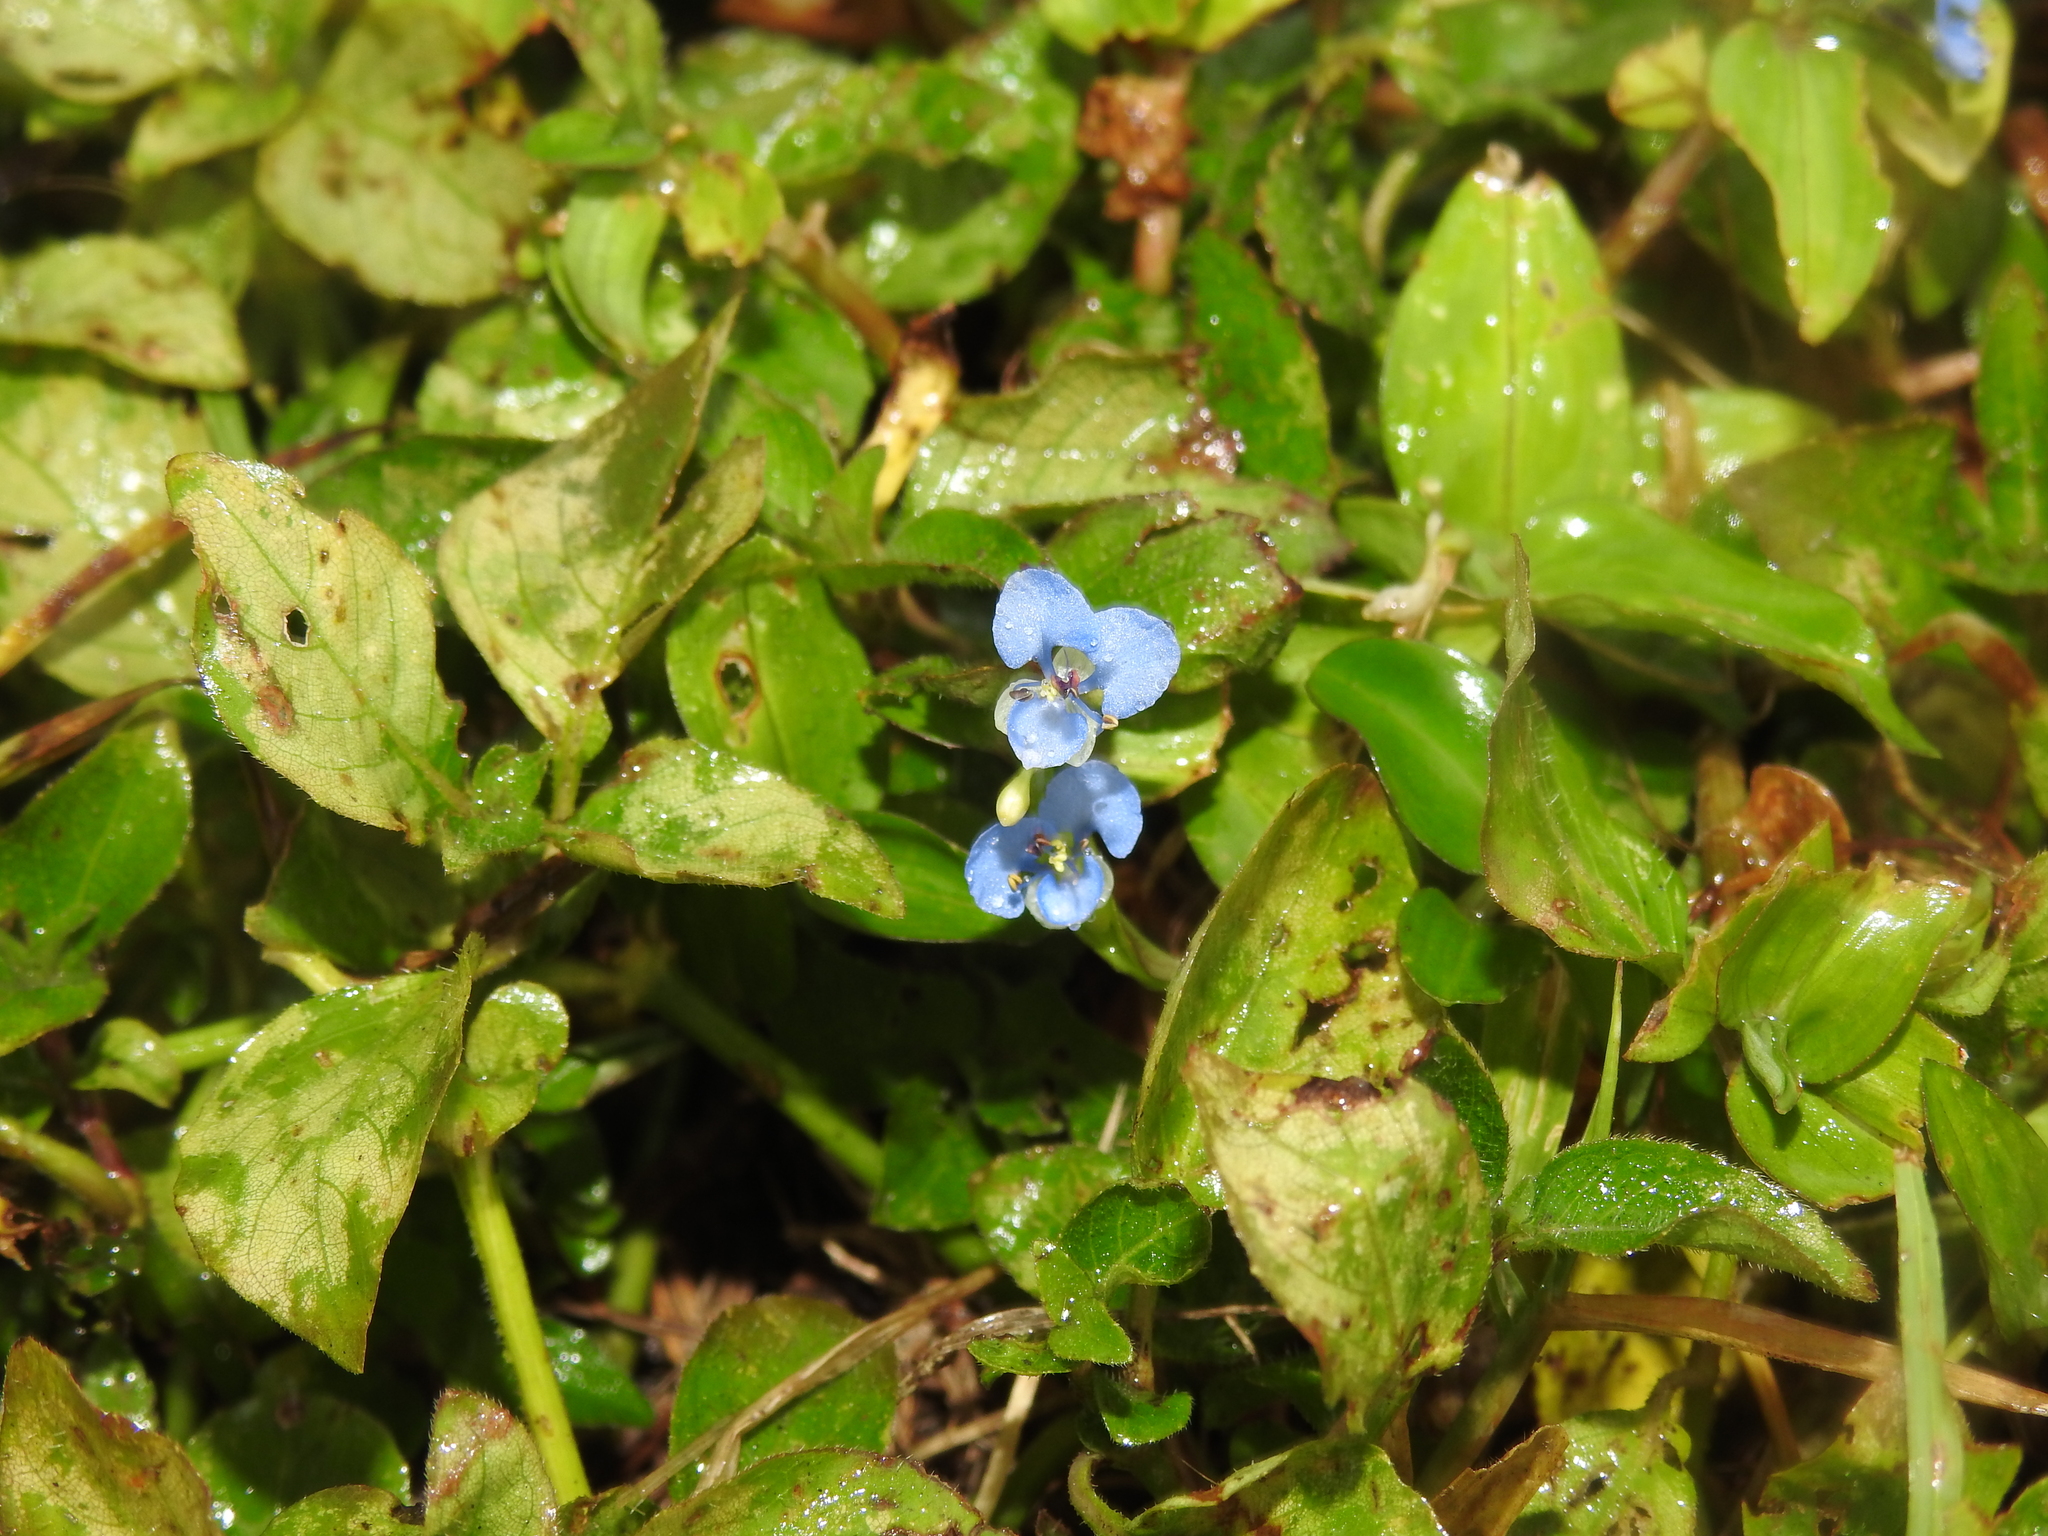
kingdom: Plantae
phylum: Tracheophyta
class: Liliopsida
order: Commelinales
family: Commelinaceae
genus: Commelina
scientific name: Commelina diffusa
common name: Climbing dayflower
